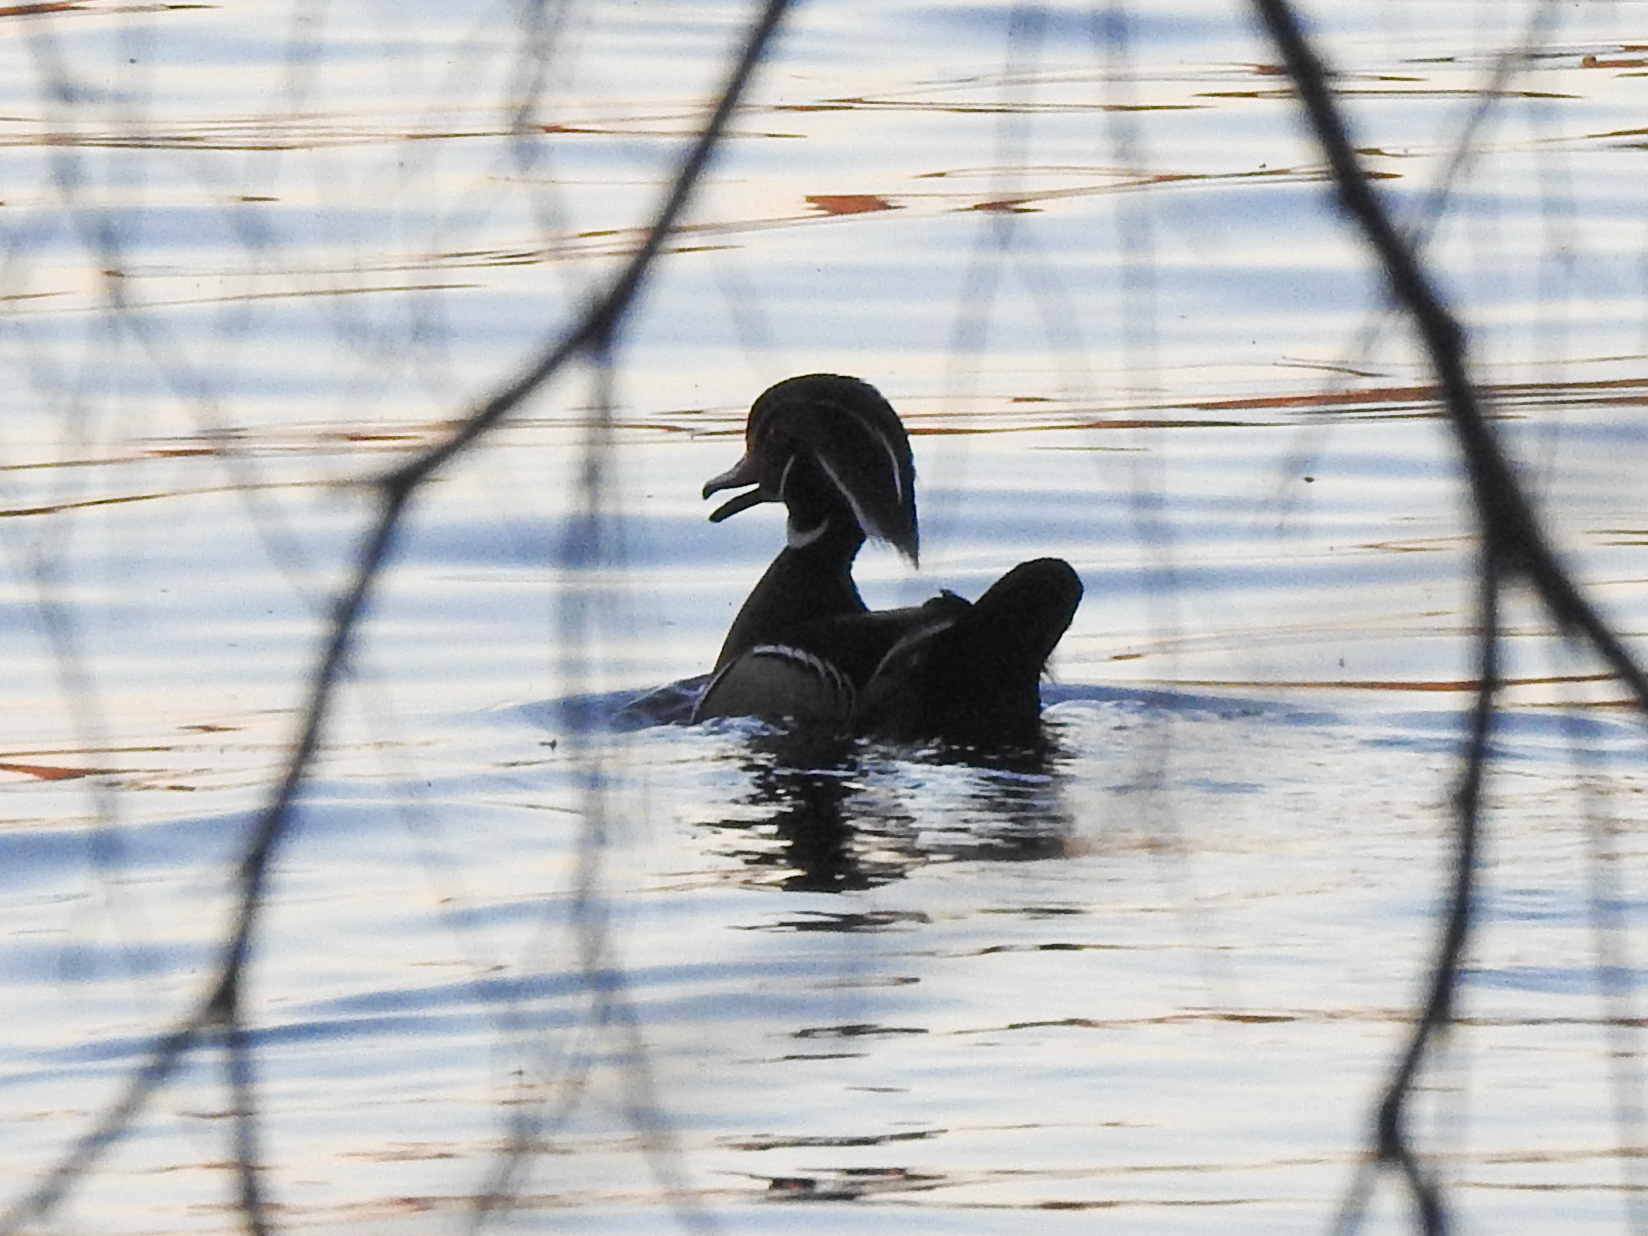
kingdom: Animalia
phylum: Chordata
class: Aves
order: Anseriformes
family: Anatidae
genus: Aix
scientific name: Aix sponsa
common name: Wood duck
